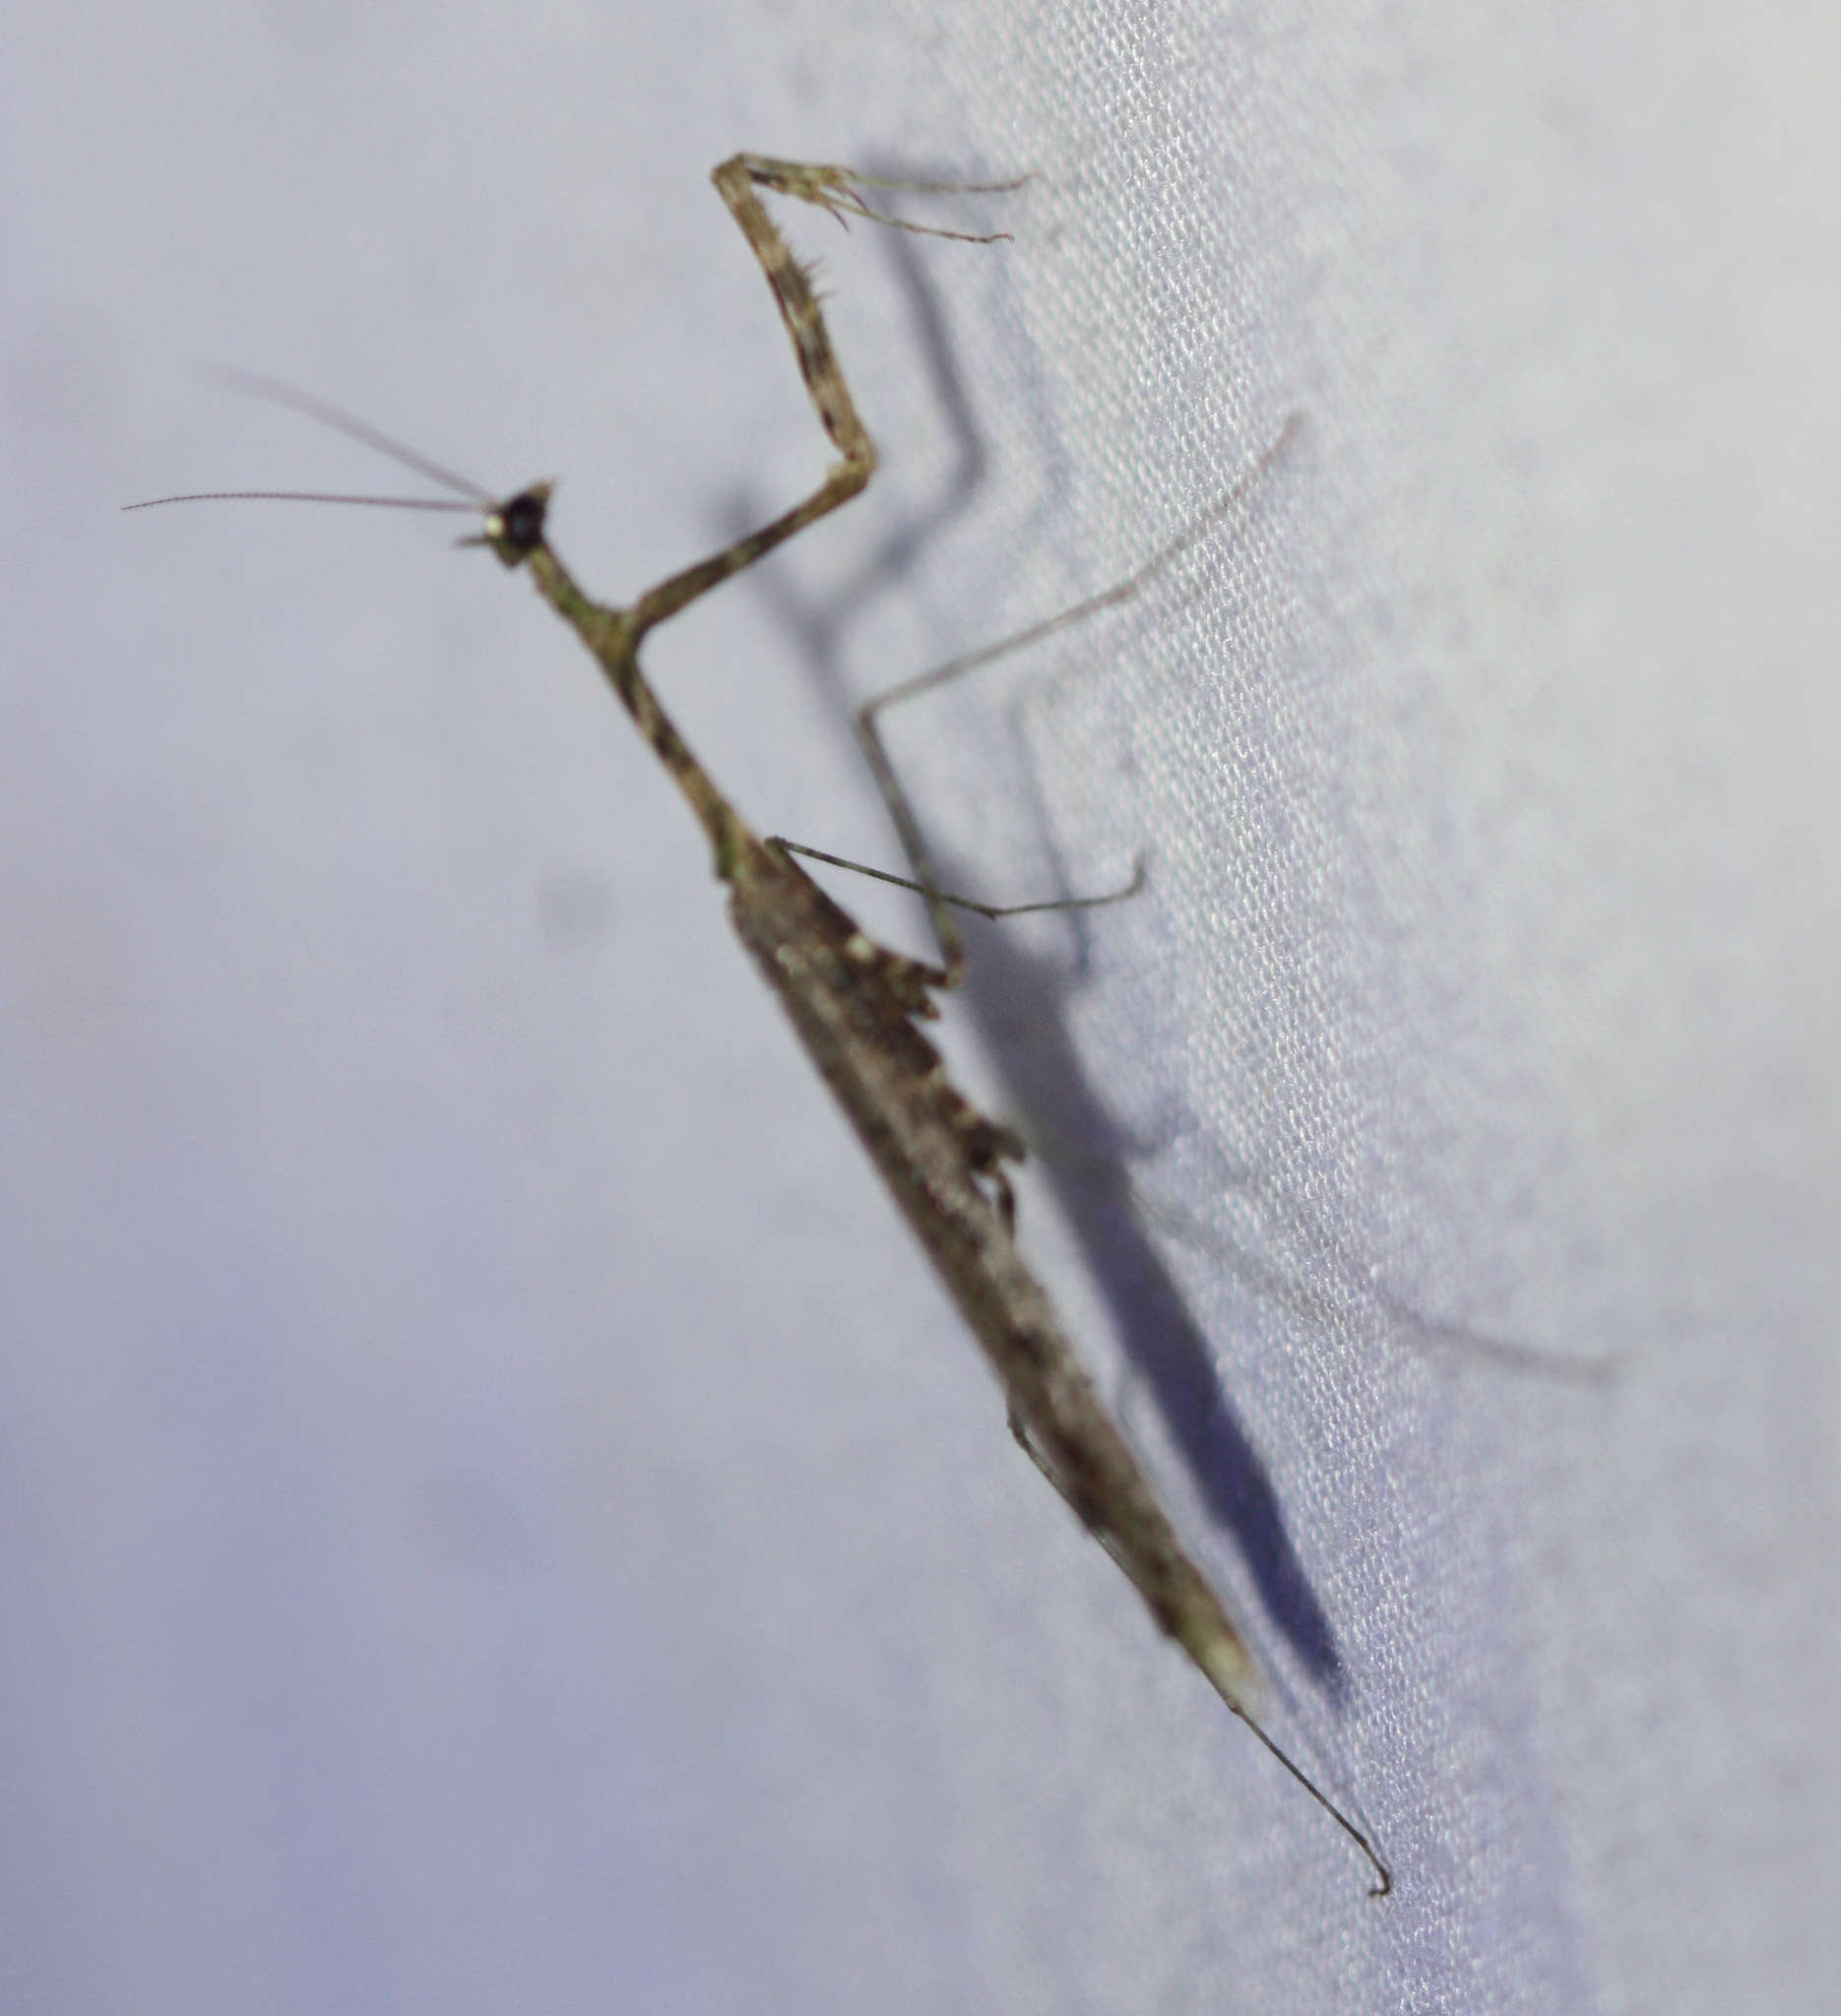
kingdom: Animalia
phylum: Arthropoda
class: Insecta
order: Mantodea
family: Thespidae
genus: Pogonogaster
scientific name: Pogonogaster tristani
